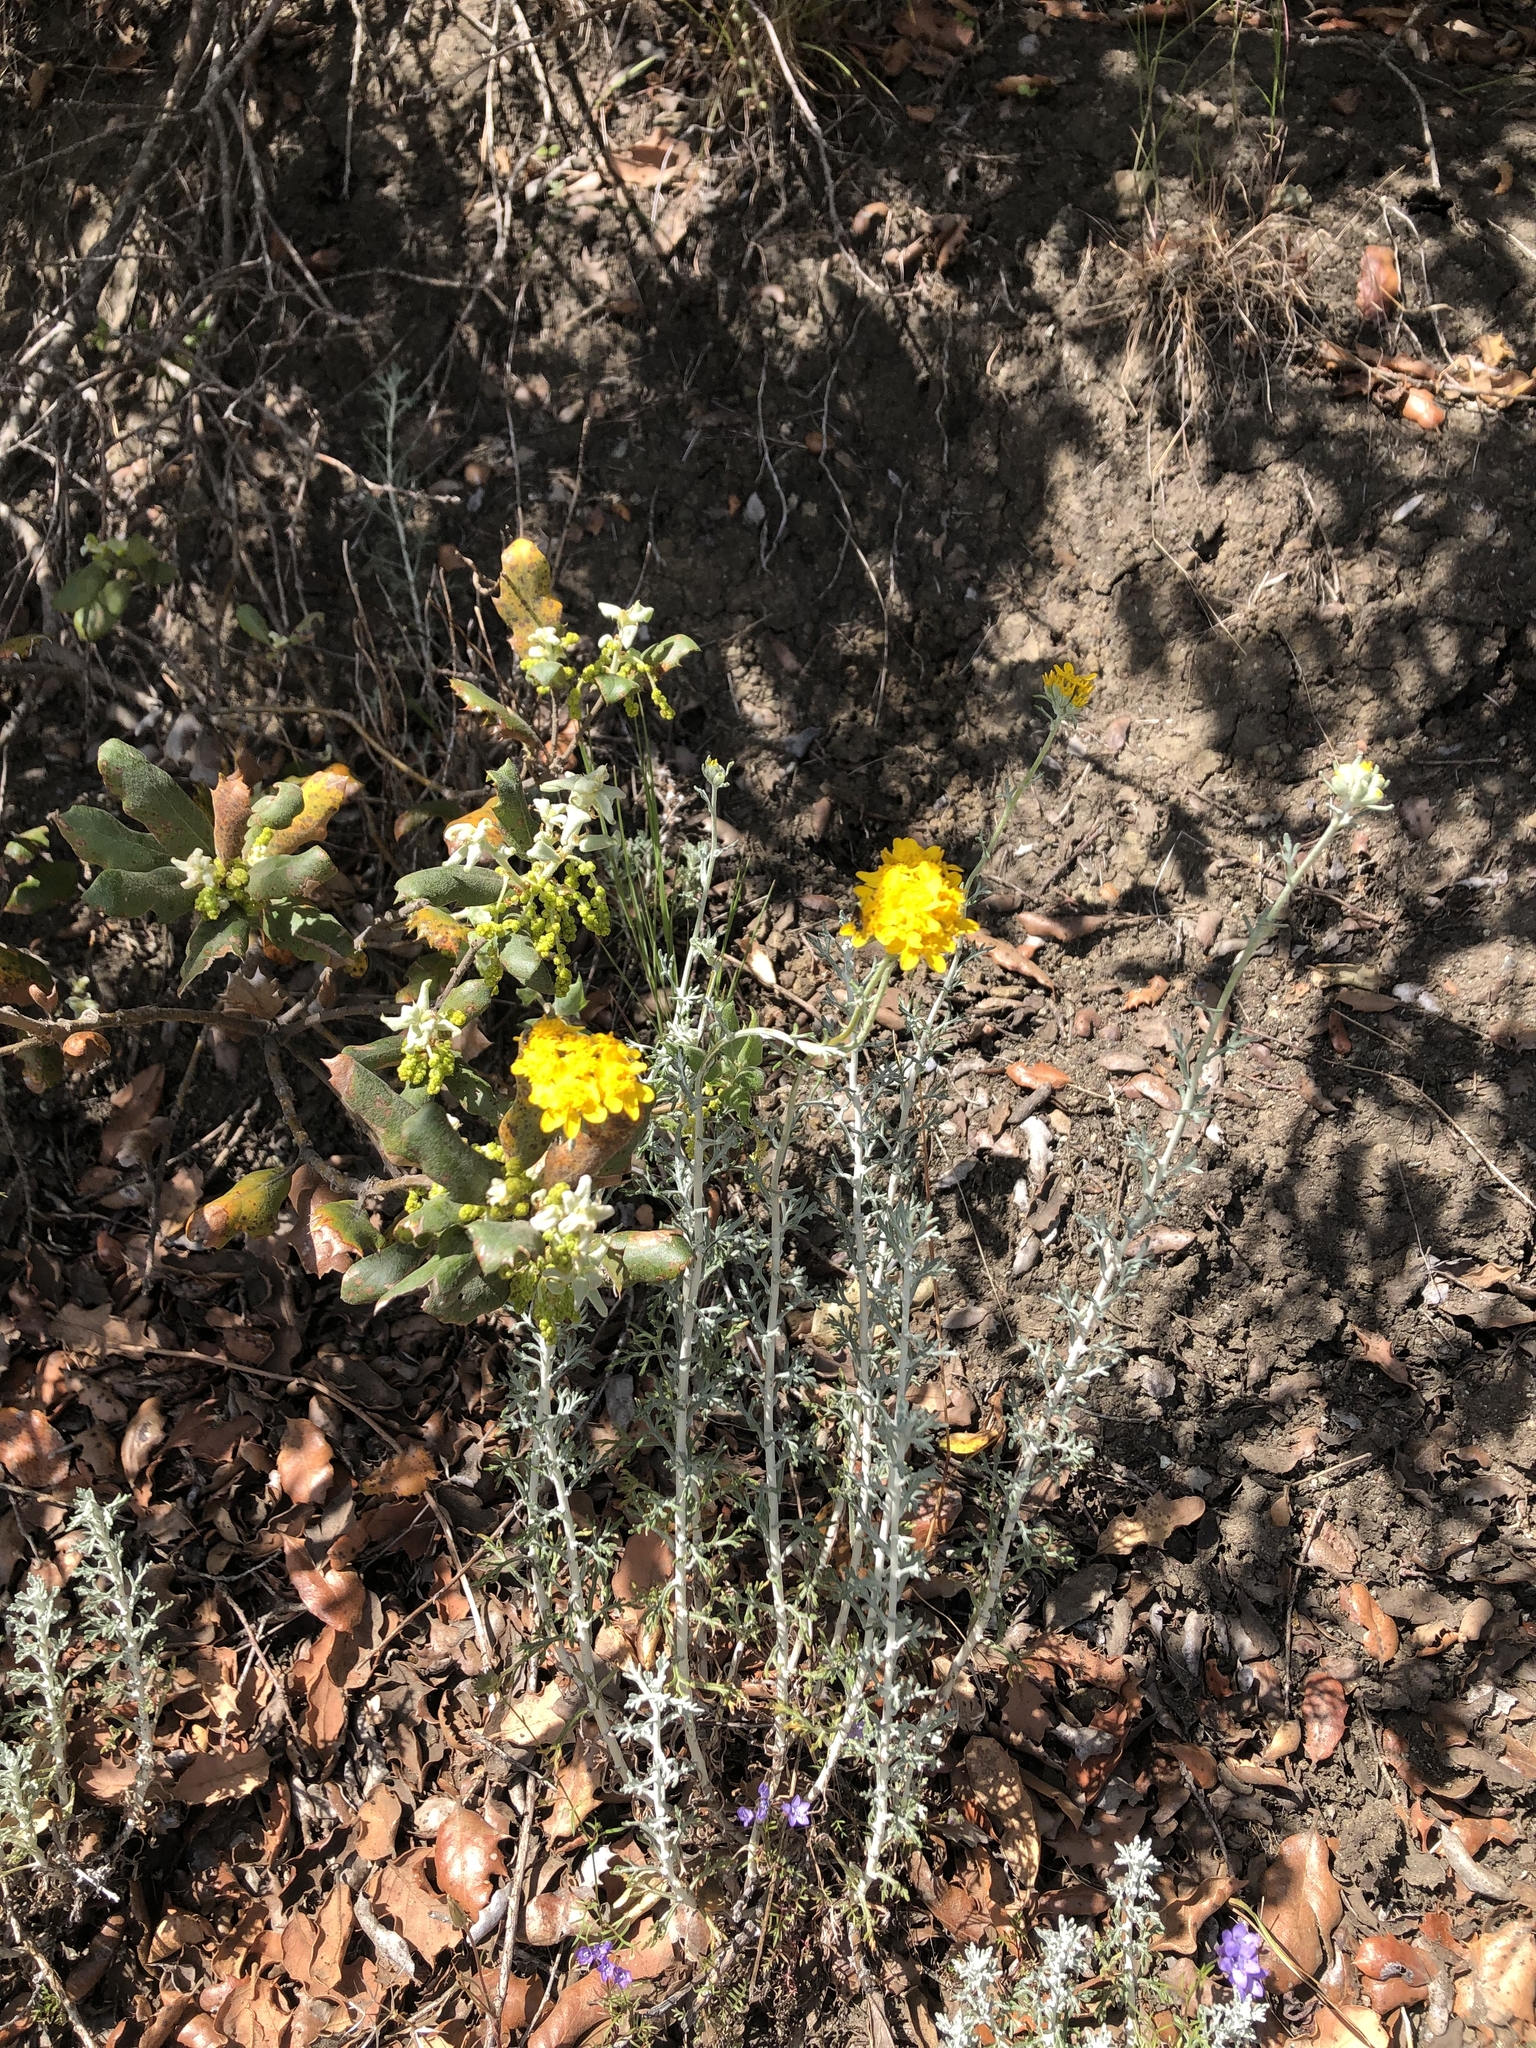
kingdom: Plantae
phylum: Tracheophyta
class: Magnoliopsida
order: Asterales
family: Asteraceae
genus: Eriophyllum
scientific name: Eriophyllum confertiflorum
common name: Golden-yarrow
